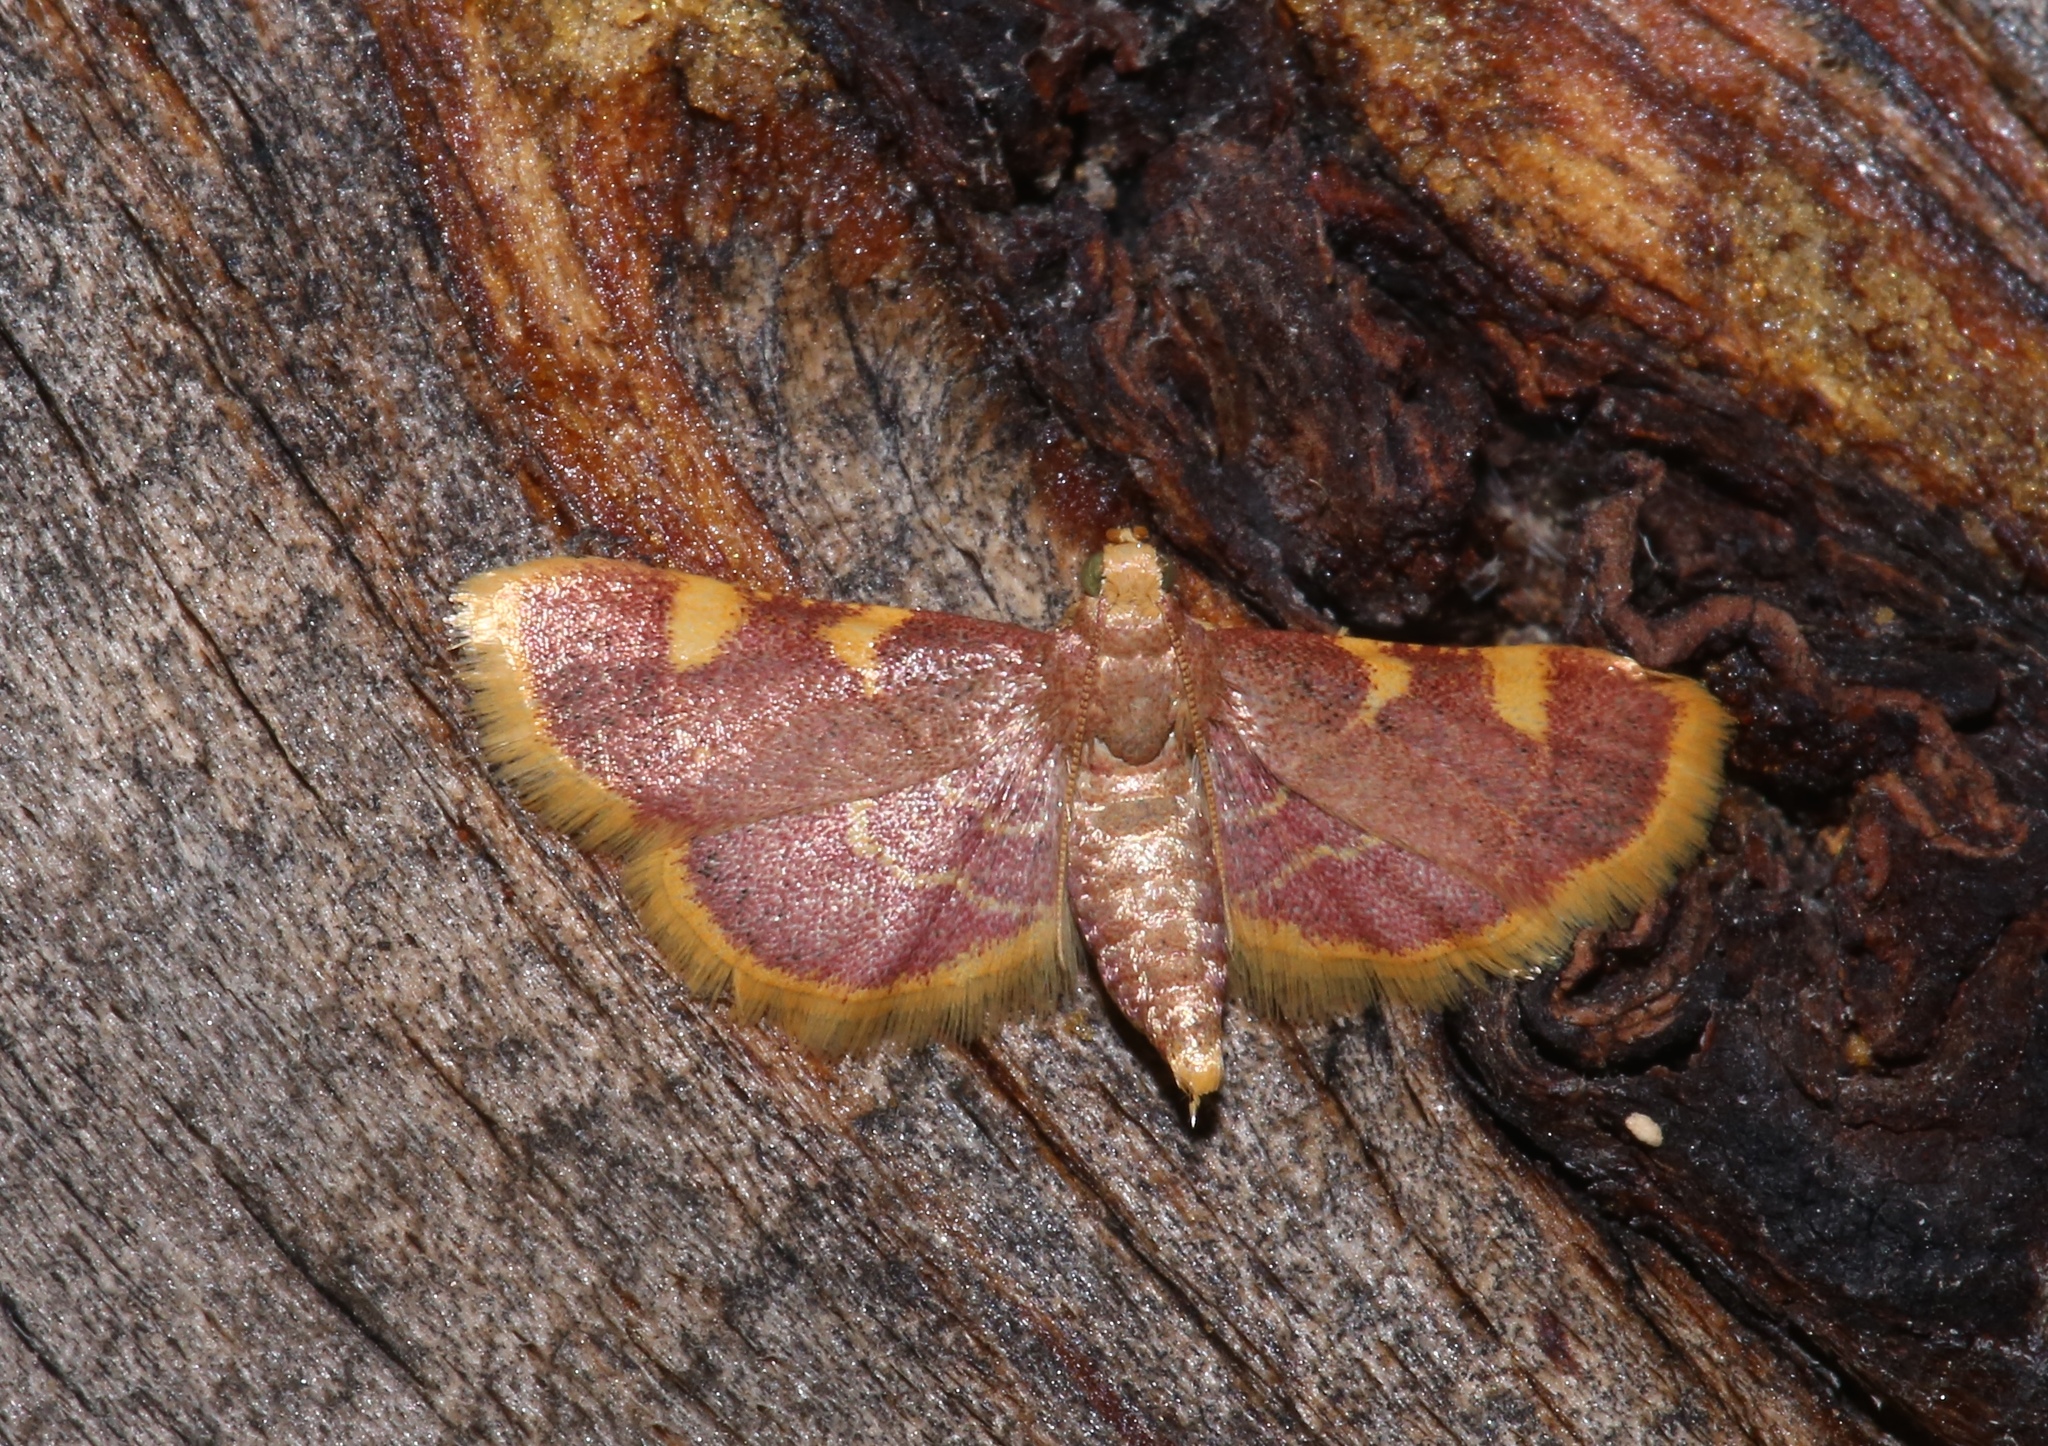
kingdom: Animalia
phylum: Arthropoda
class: Insecta
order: Lepidoptera
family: Pyralidae
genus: Hypsopygia
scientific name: Hypsopygia costalis
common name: Gold triangle
